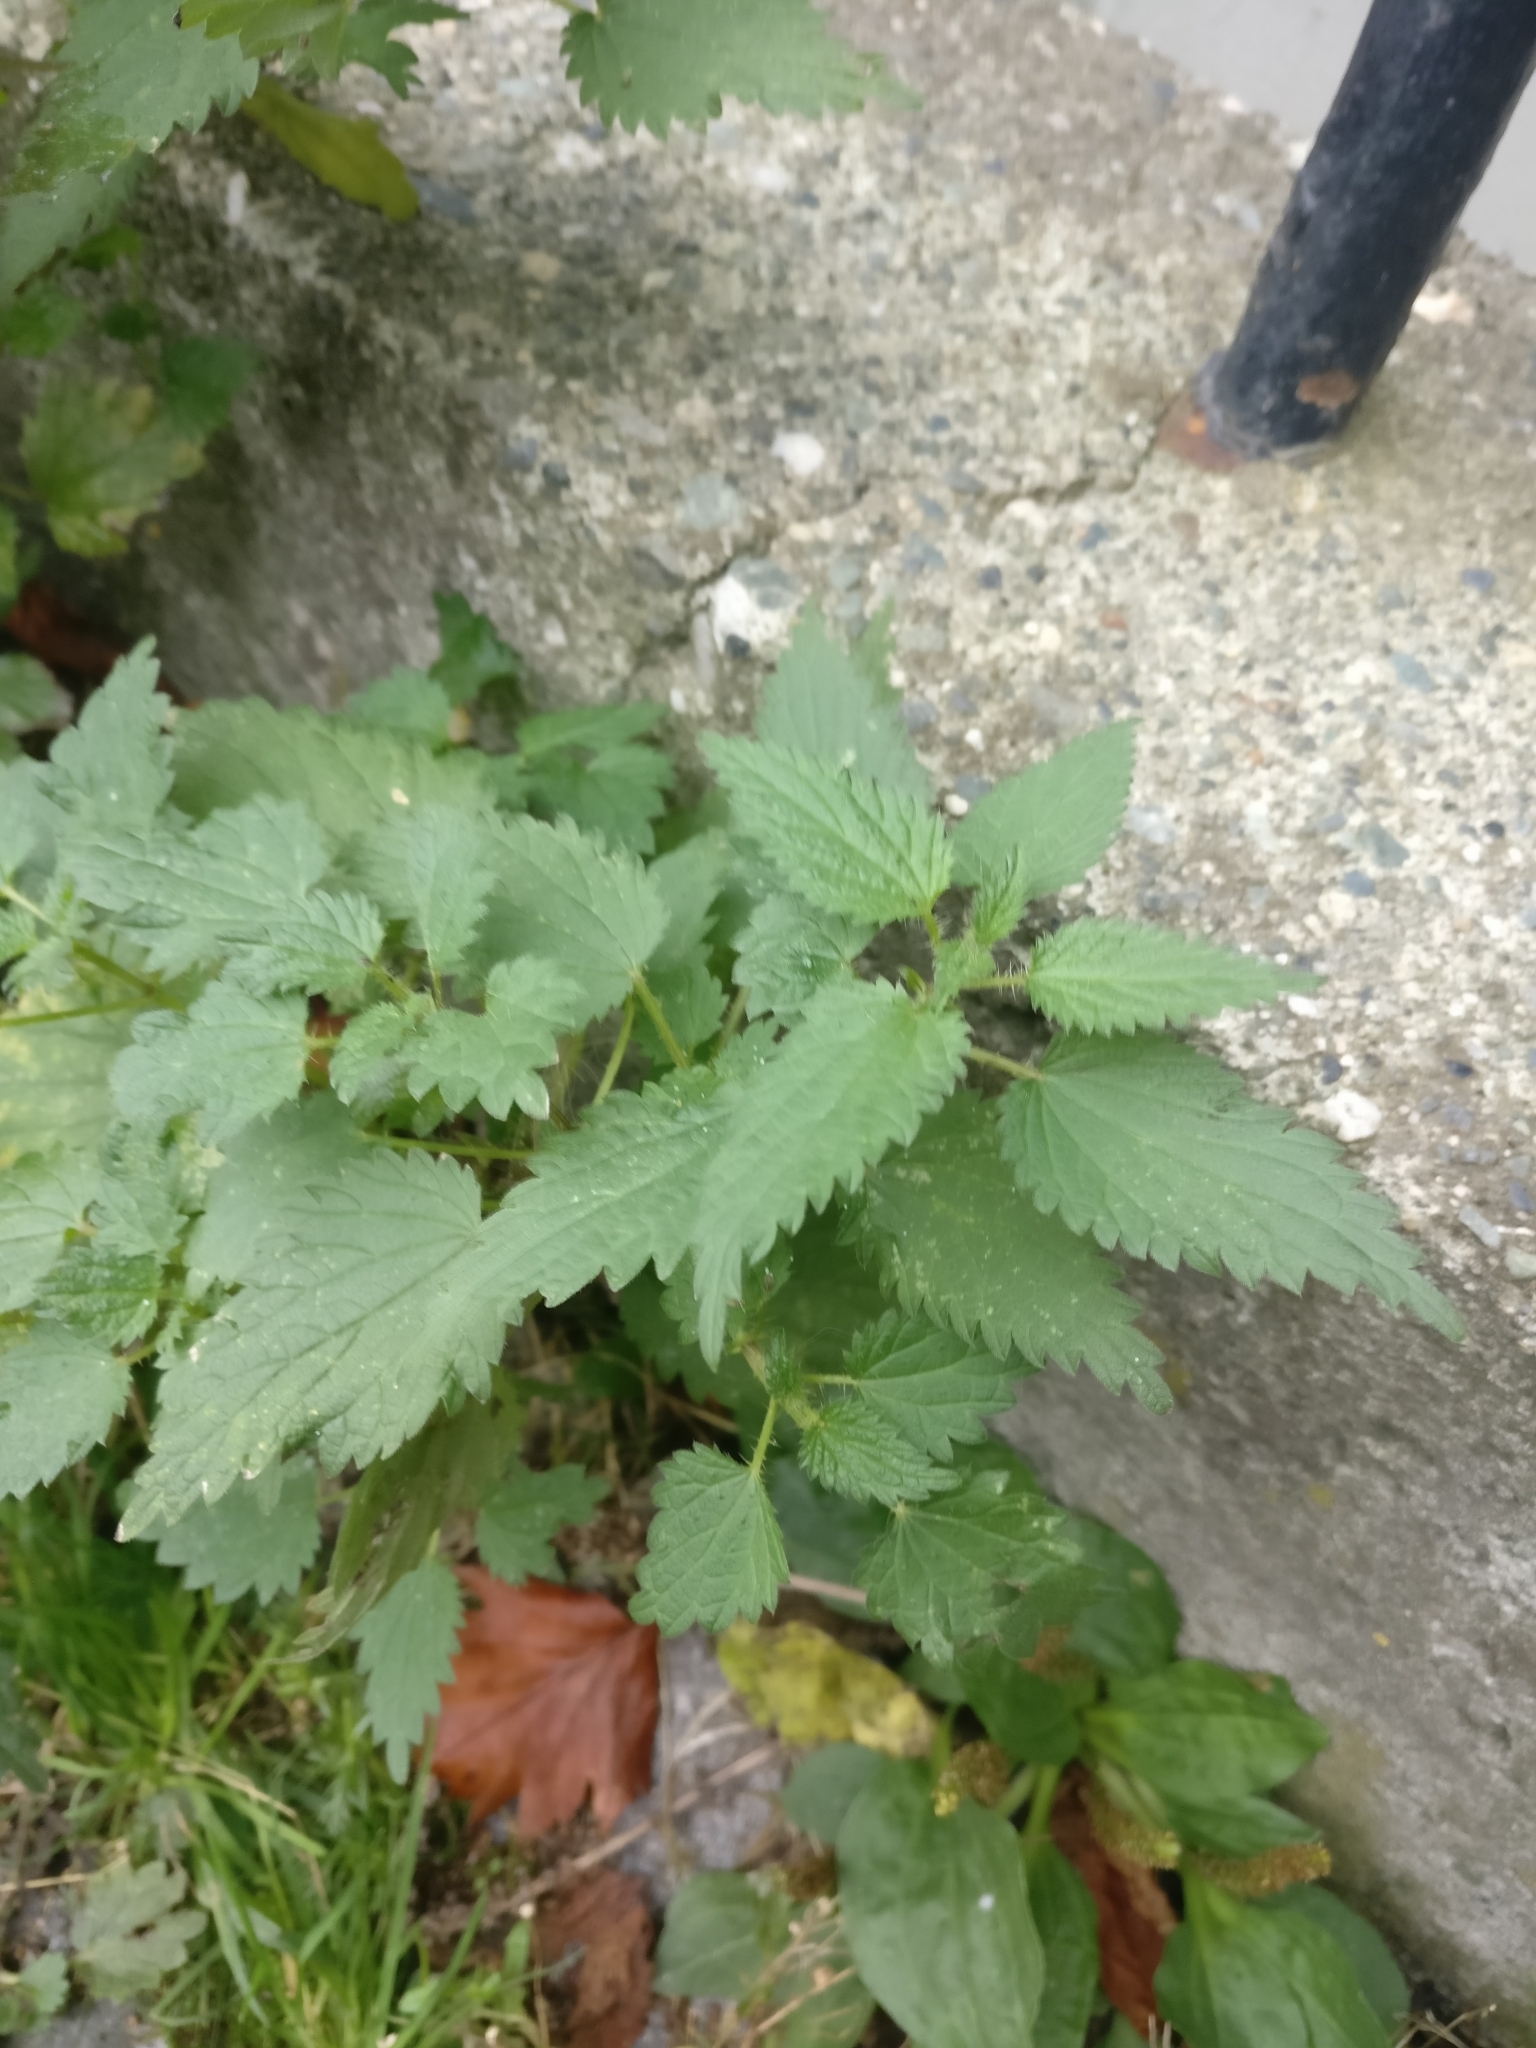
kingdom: Plantae
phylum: Tracheophyta
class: Magnoliopsida
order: Rosales
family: Urticaceae
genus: Urtica
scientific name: Urtica dioica
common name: Common nettle
